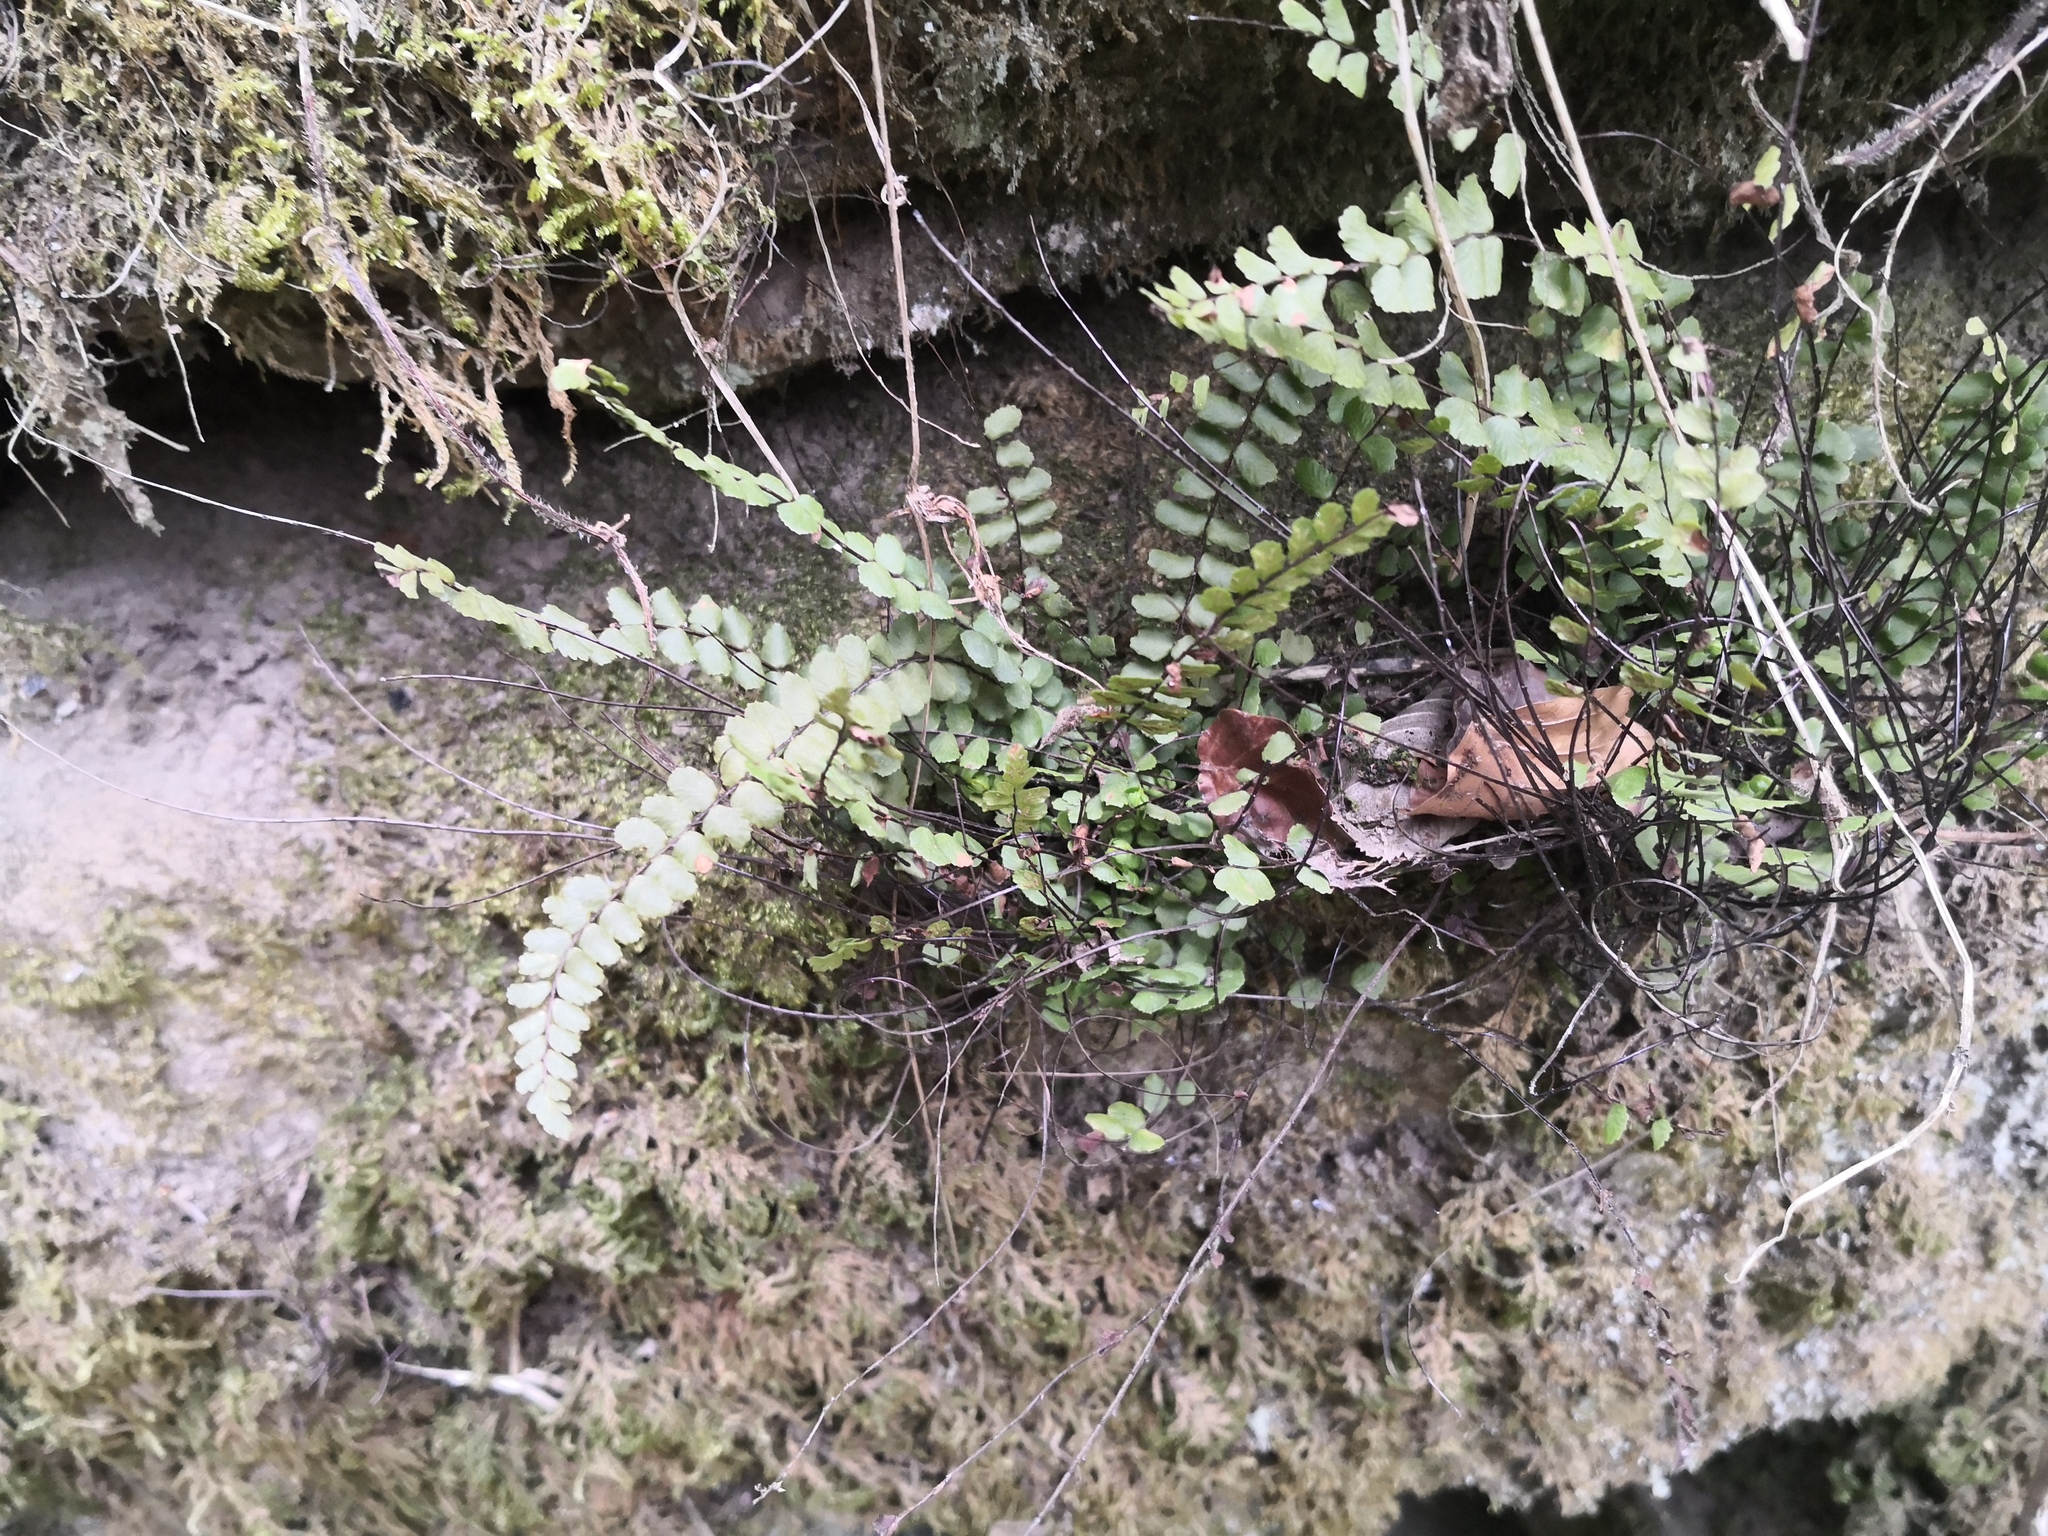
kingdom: Plantae
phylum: Tracheophyta
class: Polypodiopsida
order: Polypodiales
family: Aspleniaceae
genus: Asplenium
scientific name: Asplenium trichomanes
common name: Maidenhair spleenwort
